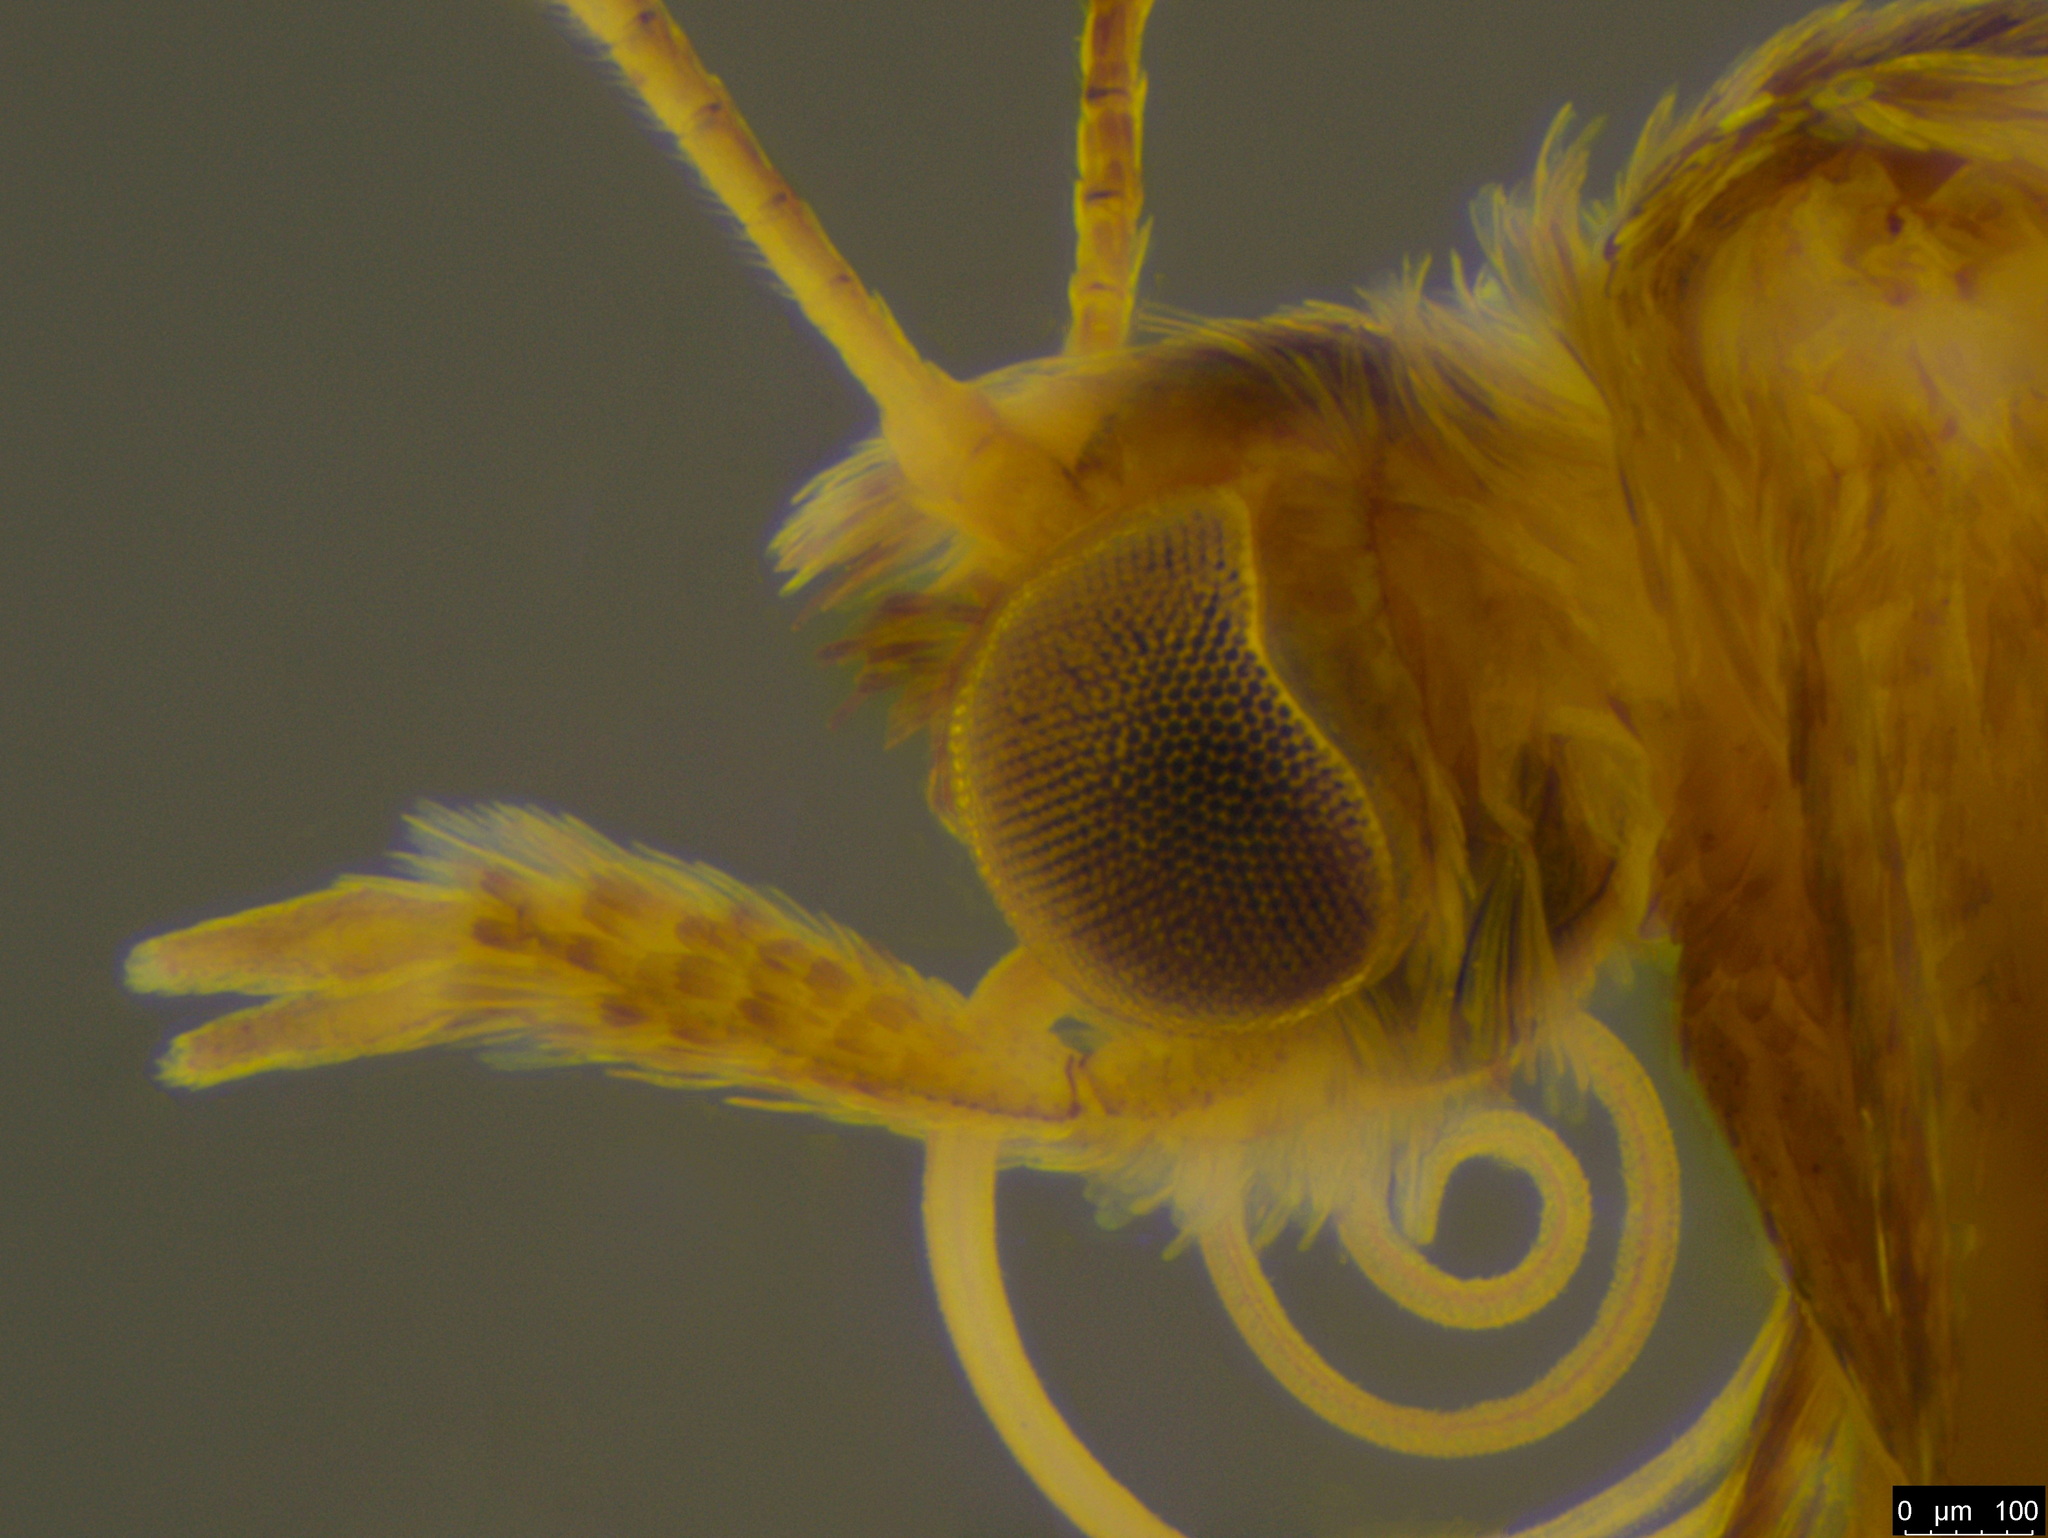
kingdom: Animalia
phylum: Arthropoda
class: Insecta
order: Lepidoptera
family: Pterophoridae
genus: Platyptilia
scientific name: Platyptilia celidotus
